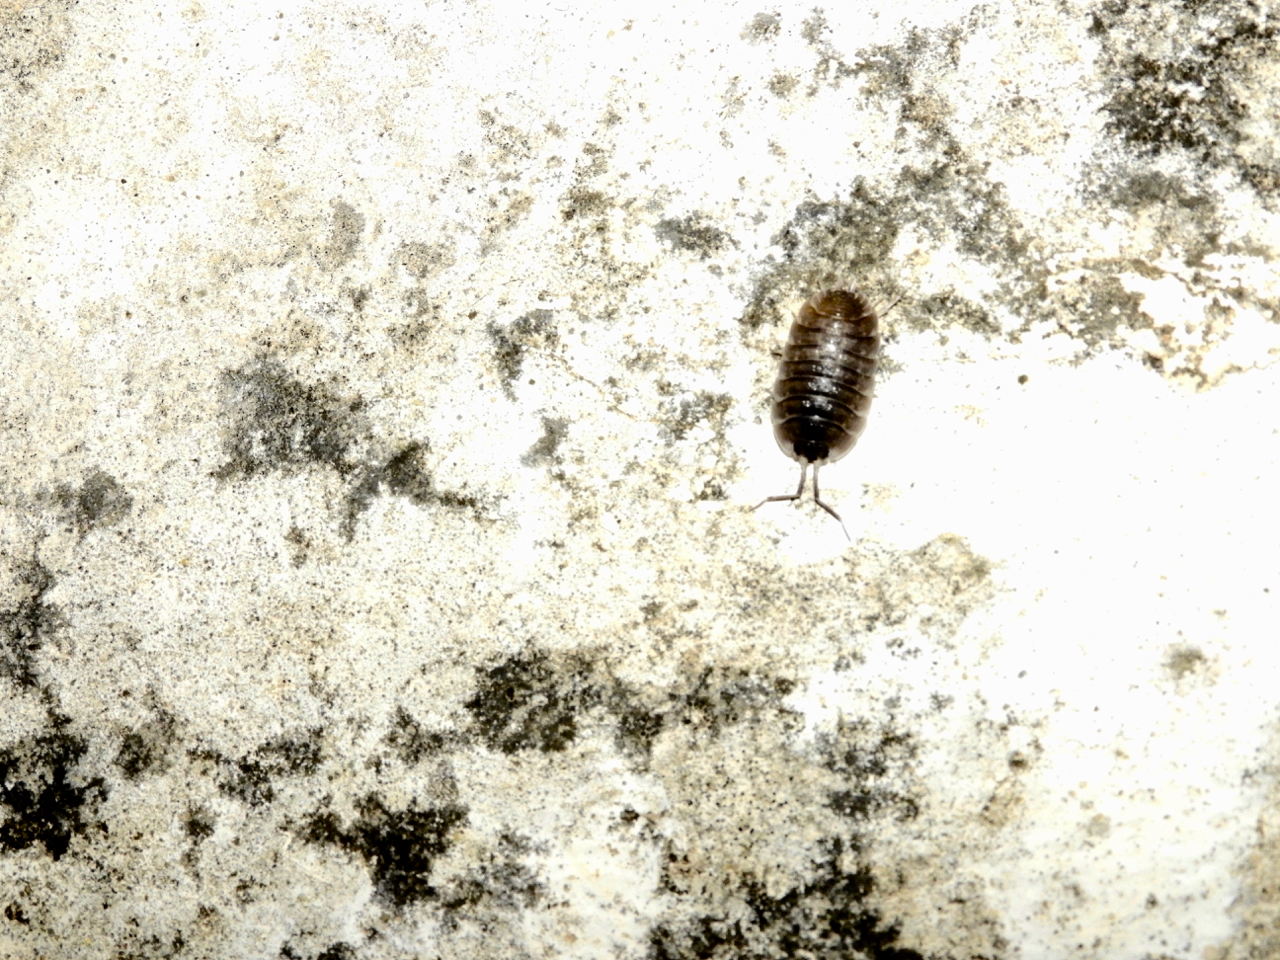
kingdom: Animalia
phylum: Arthropoda
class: Malacostraca
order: Isopoda
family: Porcellionidae
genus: Porcellio
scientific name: Porcellio obsoletus
